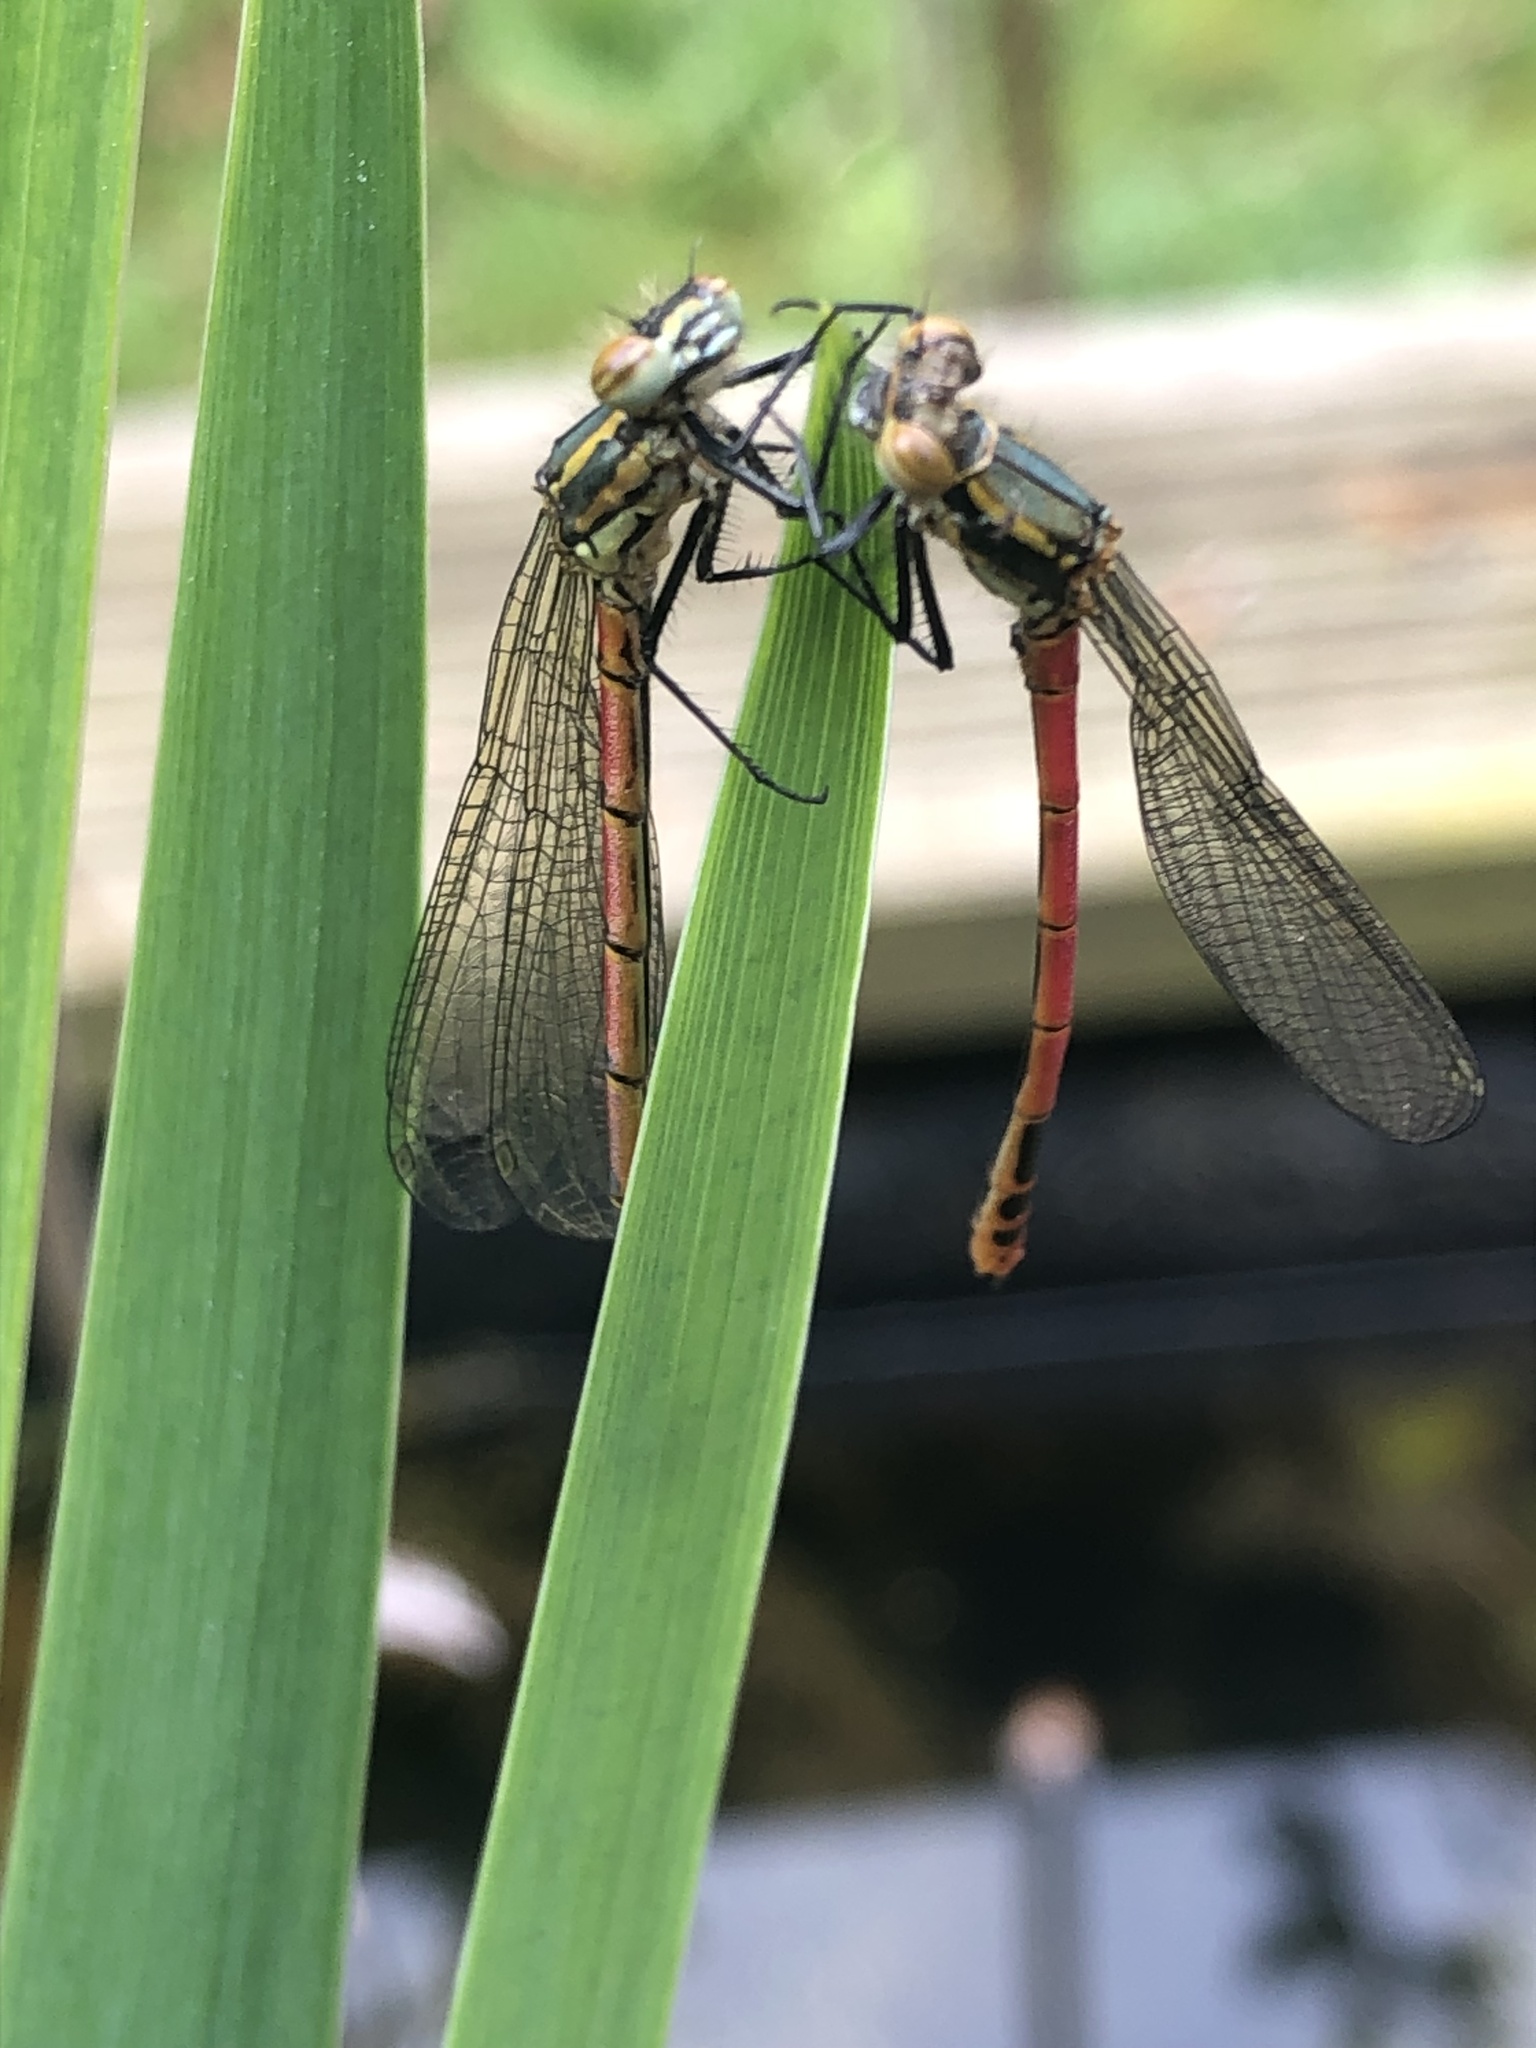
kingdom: Animalia
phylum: Arthropoda
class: Insecta
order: Odonata
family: Coenagrionidae
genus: Pyrrhosoma
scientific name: Pyrrhosoma nymphula
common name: Large red damsel
